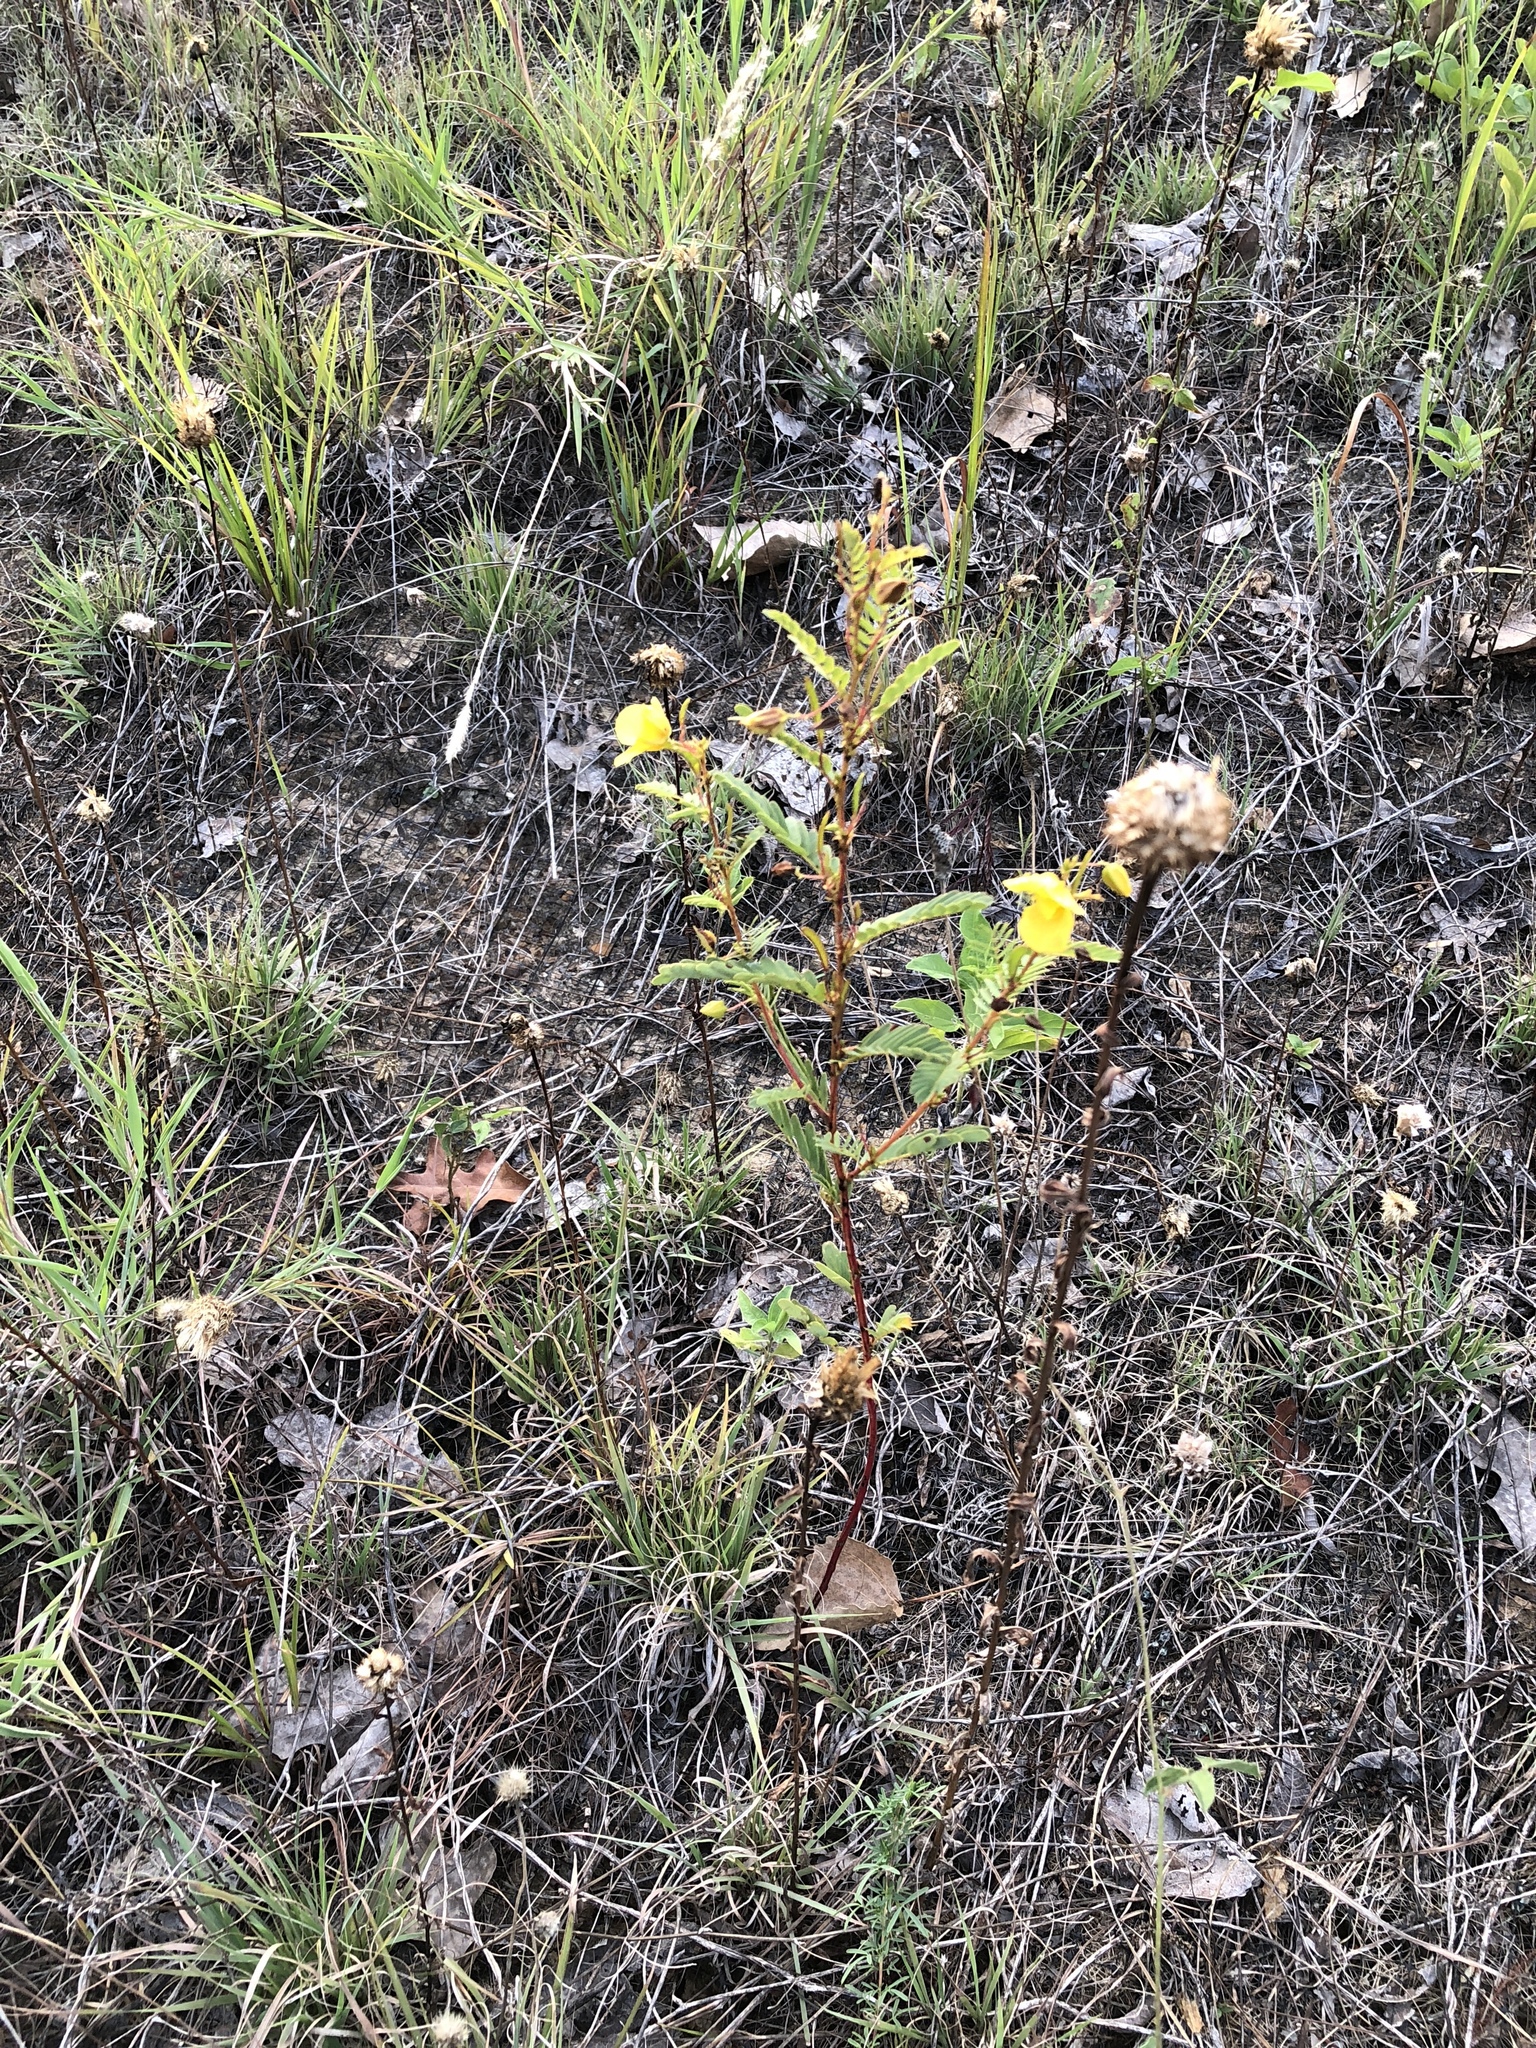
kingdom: Plantae
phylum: Tracheophyta
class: Magnoliopsida
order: Fabales
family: Fabaceae
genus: Chamaecrista
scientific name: Chamaecrista fasciculata
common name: Golden cassia
